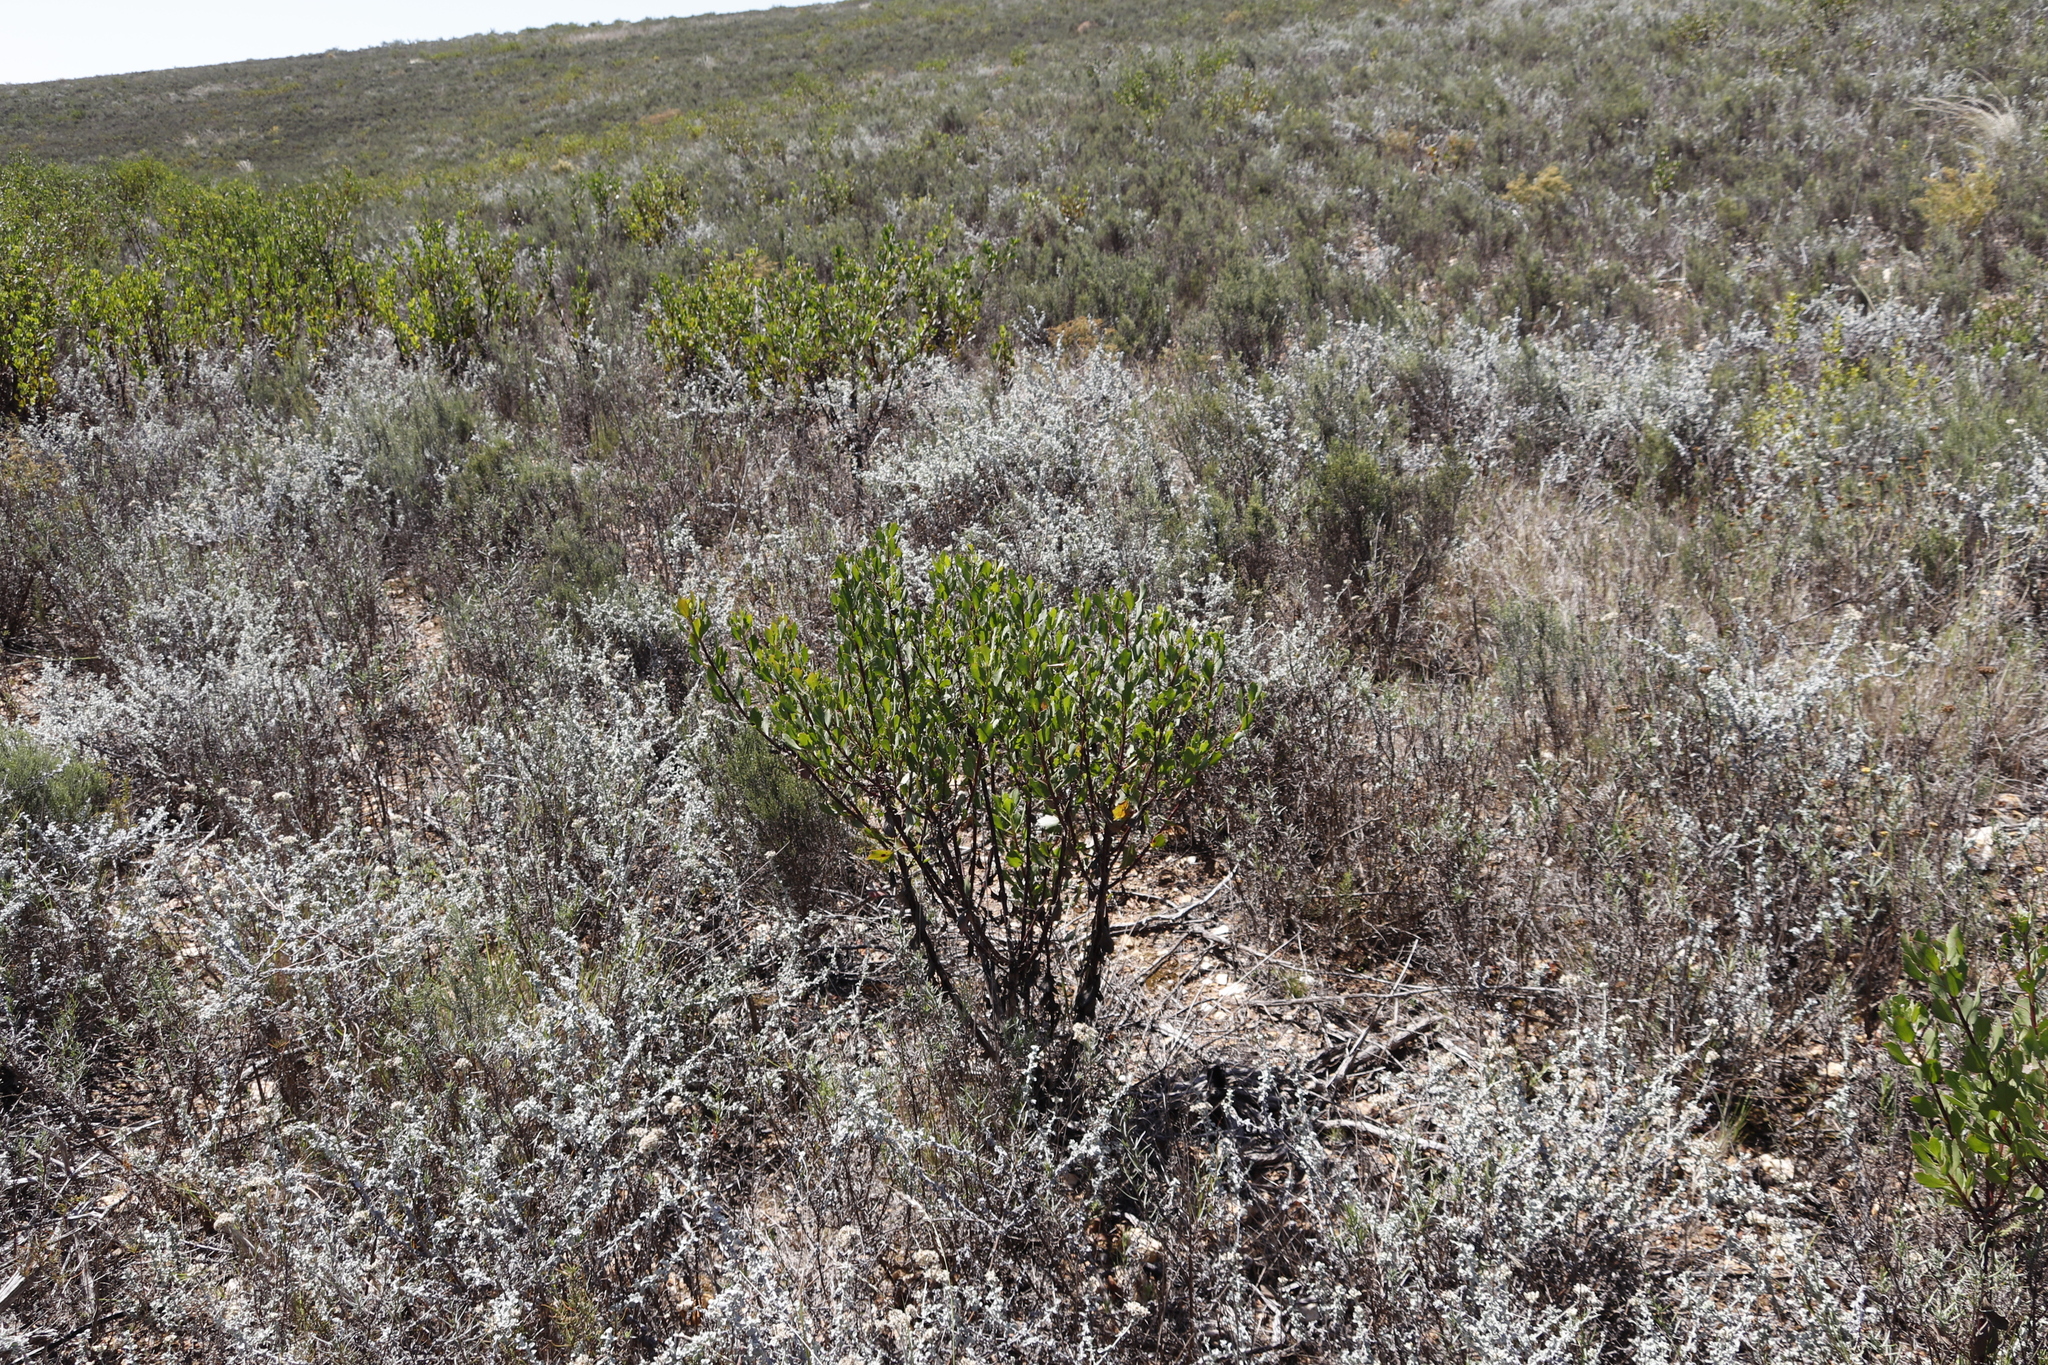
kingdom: Plantae
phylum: Tracheophyta
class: Magnoliopsida
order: Asterales
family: Asteraceae
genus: Osteospermum
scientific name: Osteospermum moniliferum
